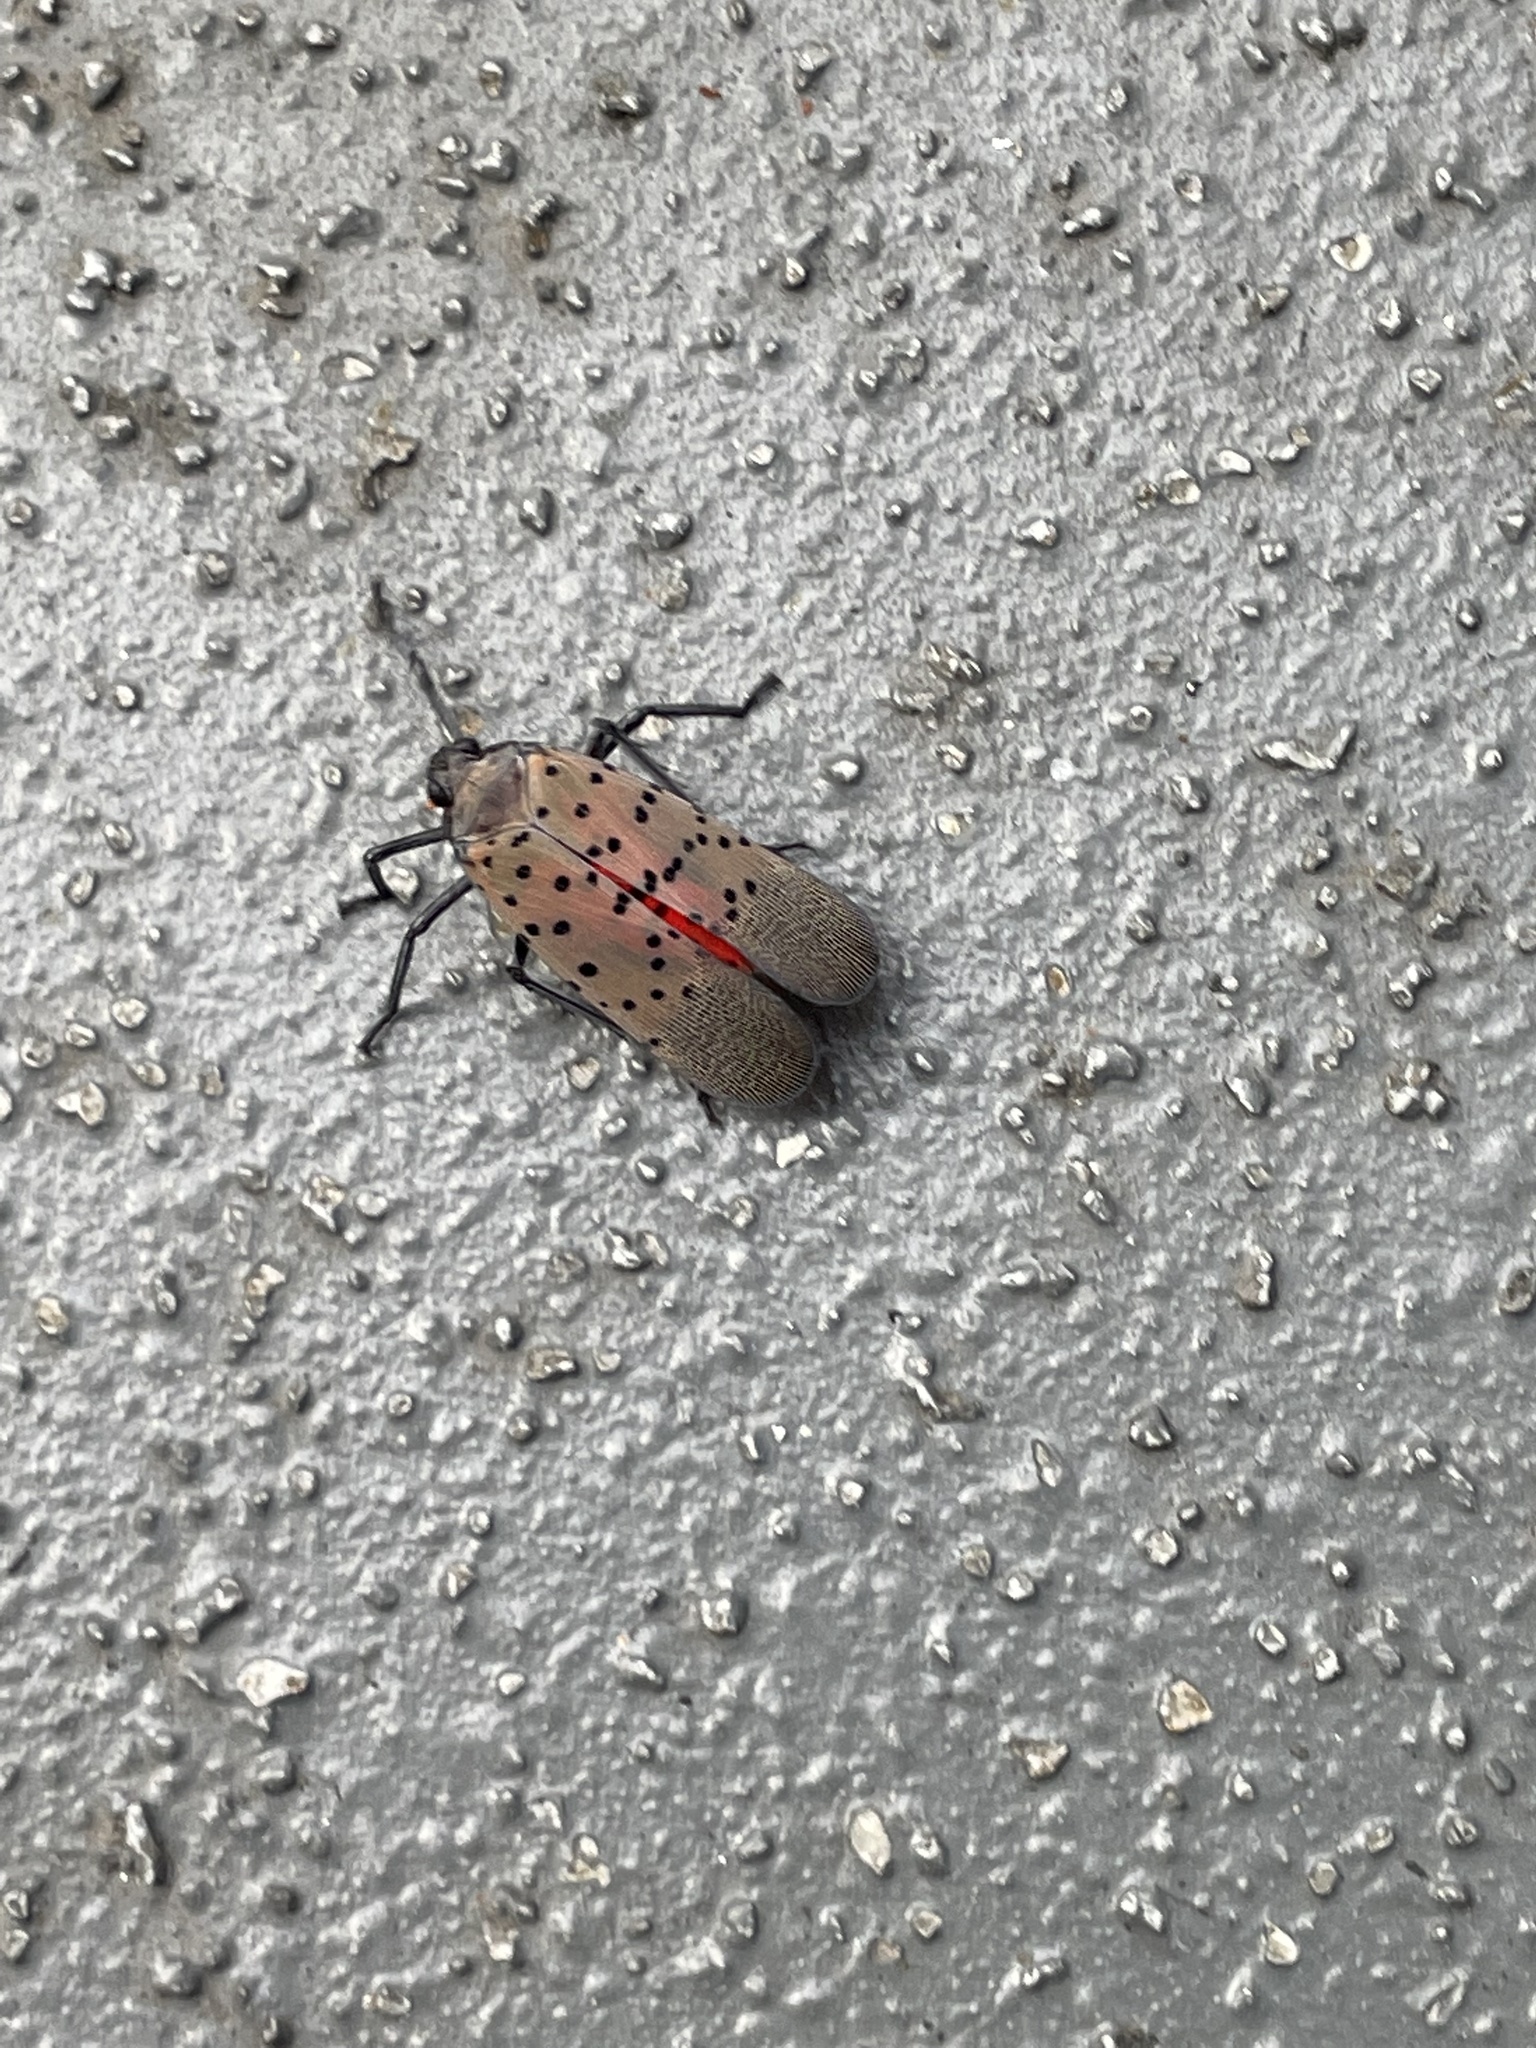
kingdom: Animalia
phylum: Arthropoda
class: Insecta
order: Hemiptera
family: Fulgoridae
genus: Lycorma
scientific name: Lycorma delicatula
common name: Spotted lanternfly
